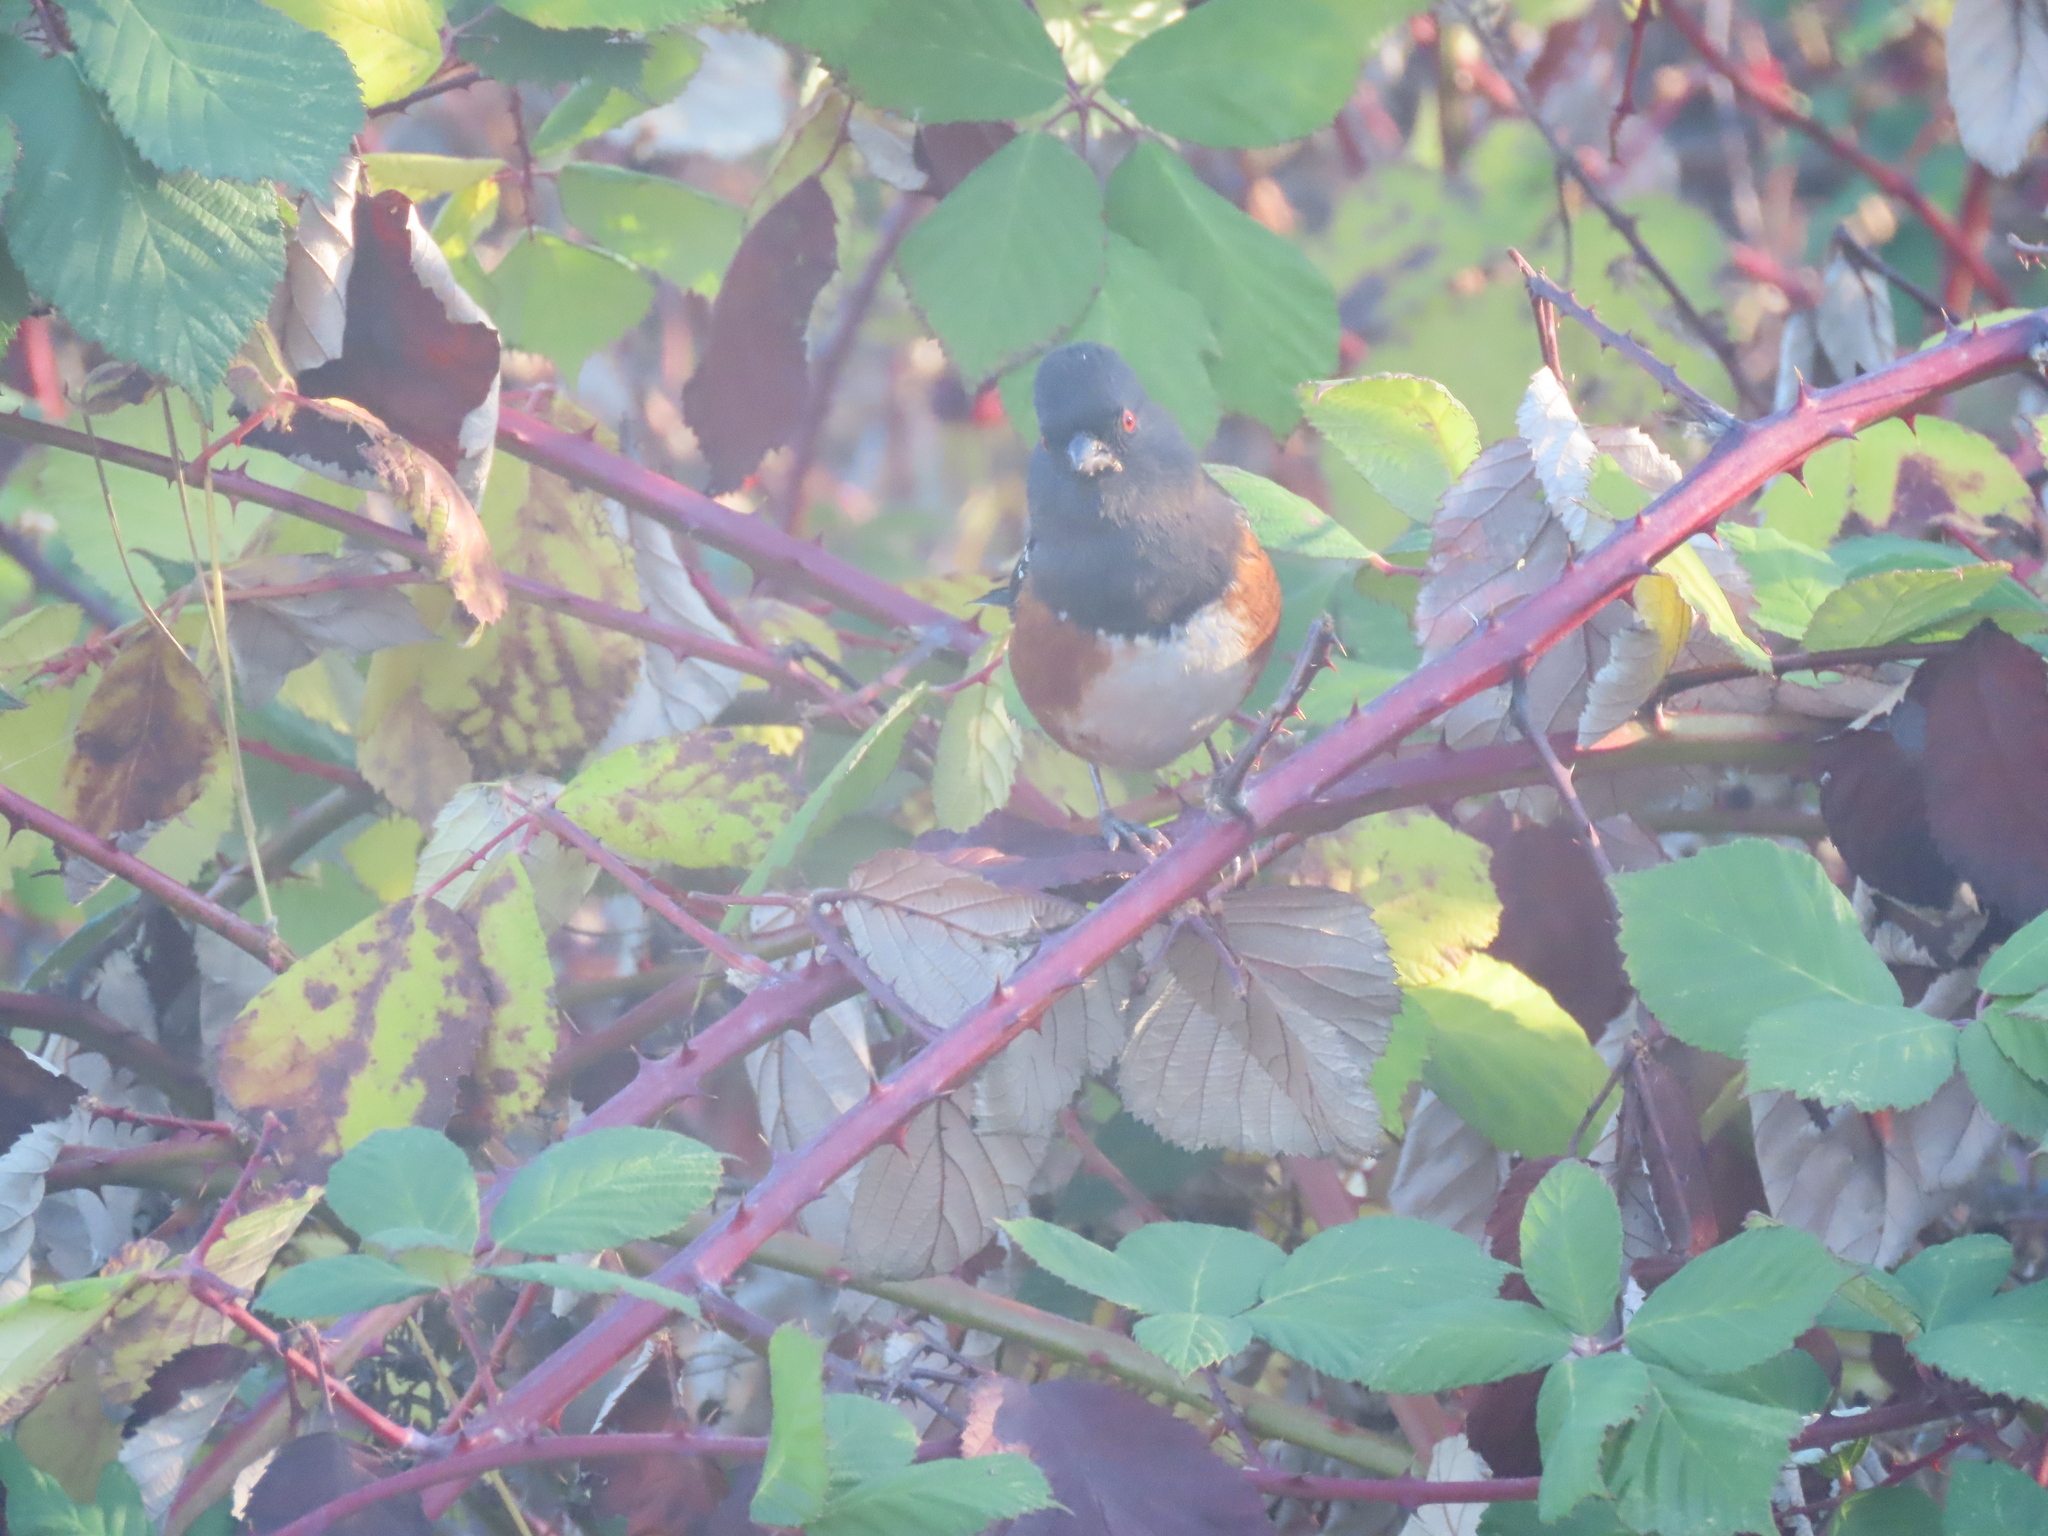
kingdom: Animalia
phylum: Chordata
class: Aves
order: Passeriformes
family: Passerellidae
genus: Pipilo
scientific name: Pipilo maculatus
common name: Spotted towhee
